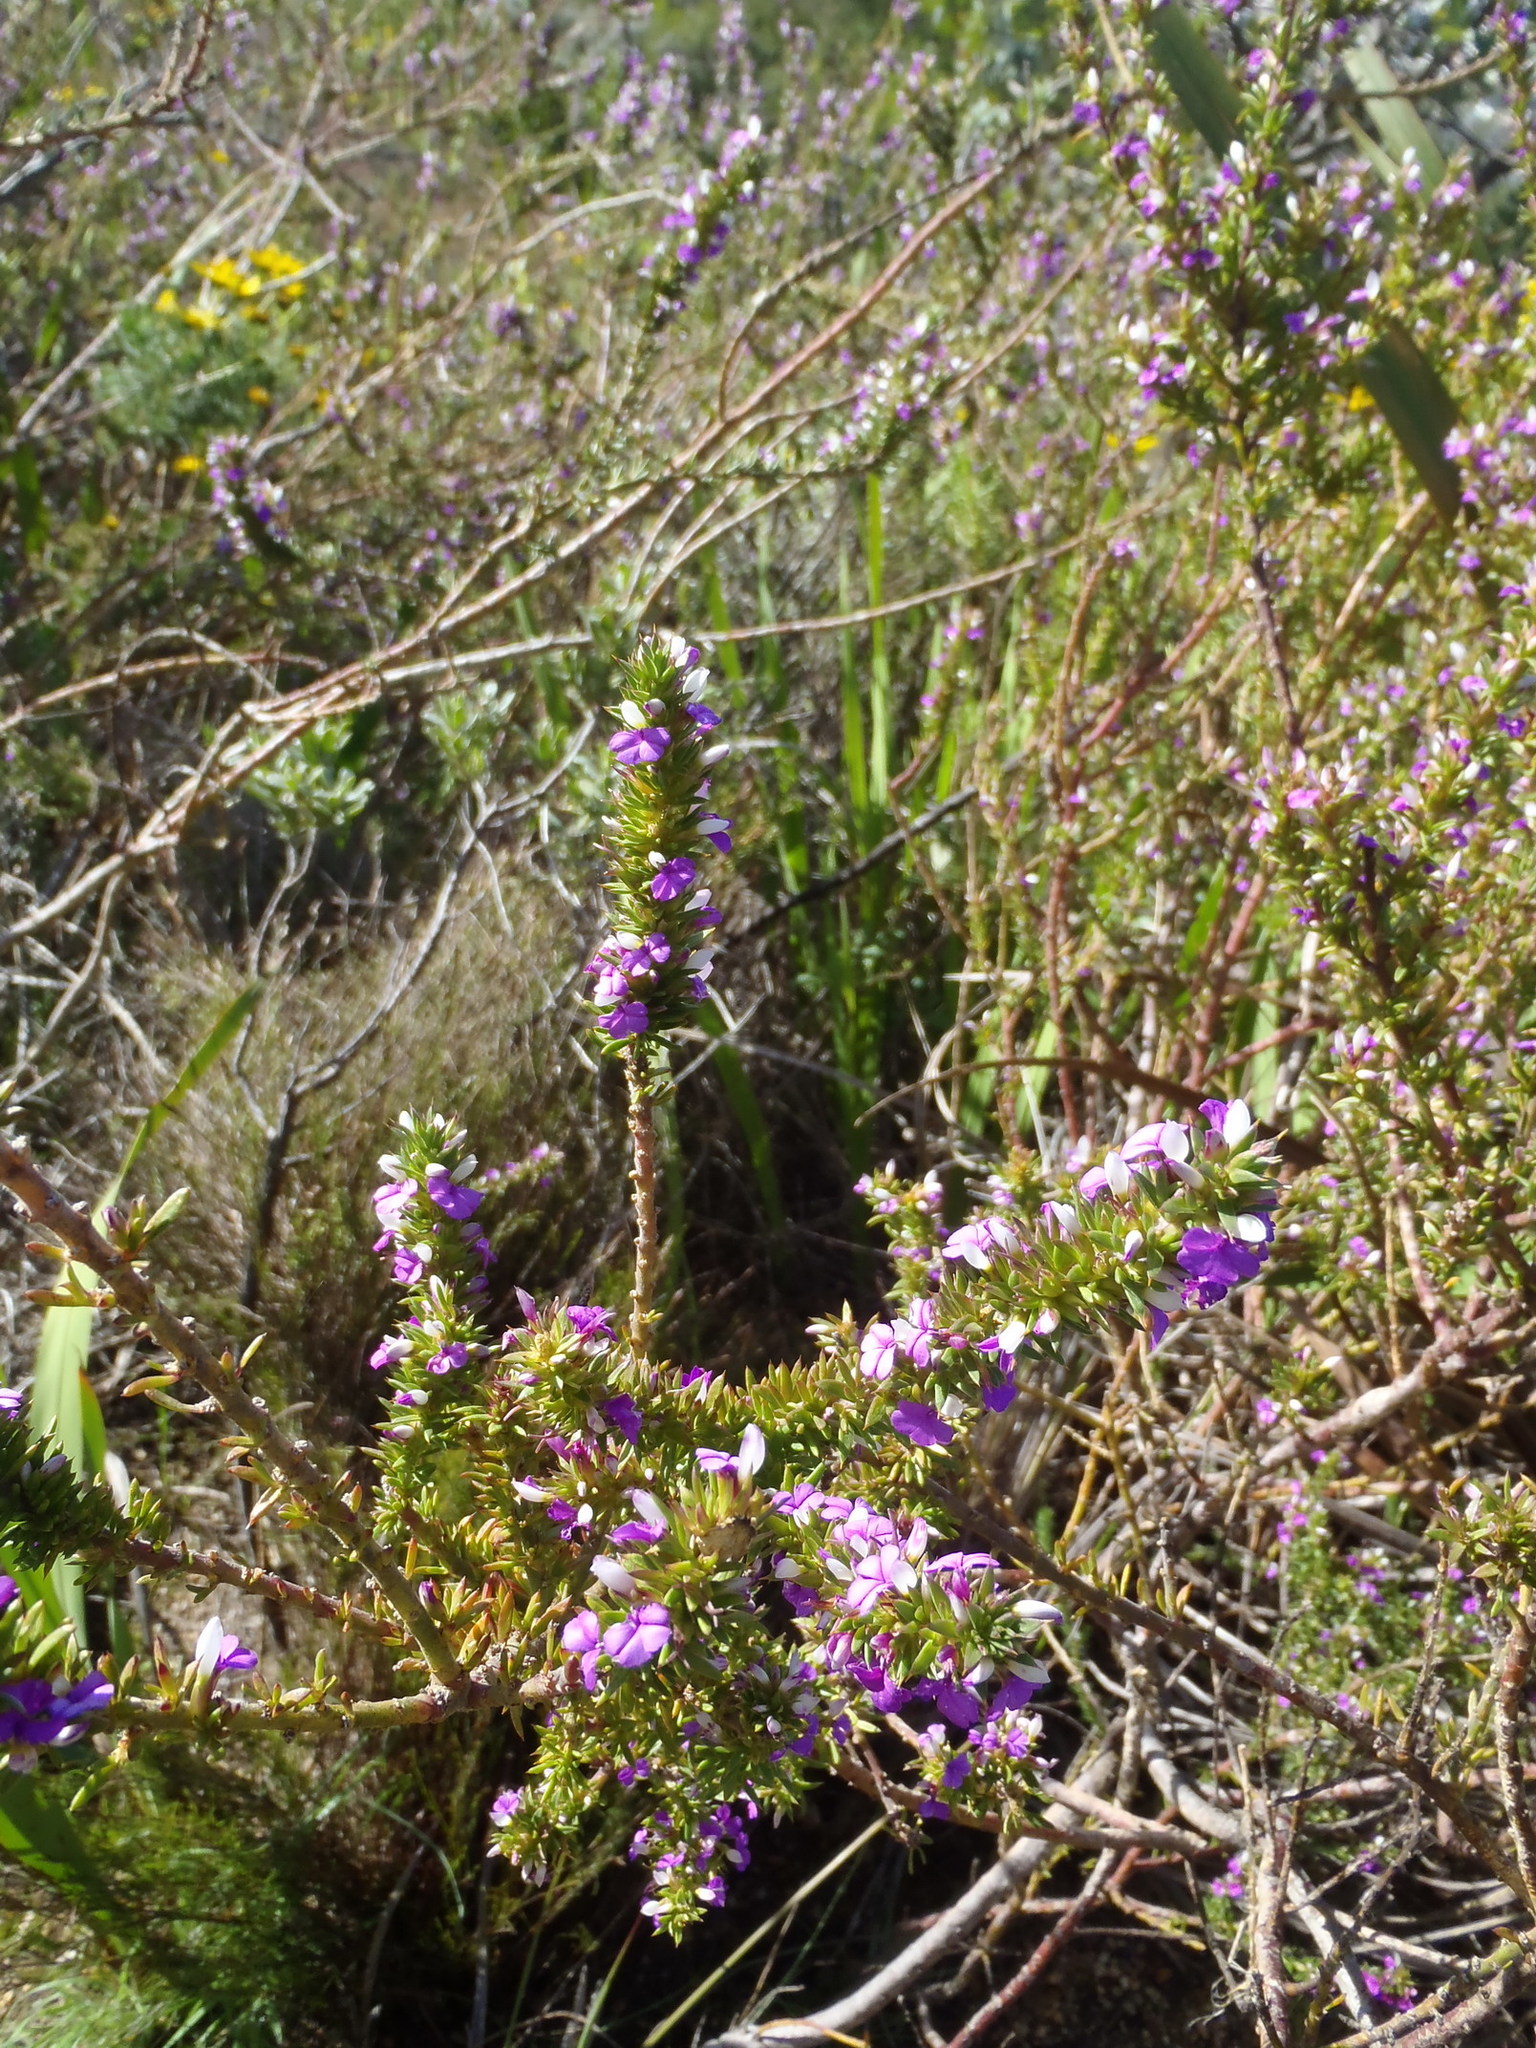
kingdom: Plantae
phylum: Tracheophyta
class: Magnoliopsida
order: Fabales
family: Polygalaceae
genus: Muraltia
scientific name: Muraltia heisteria
